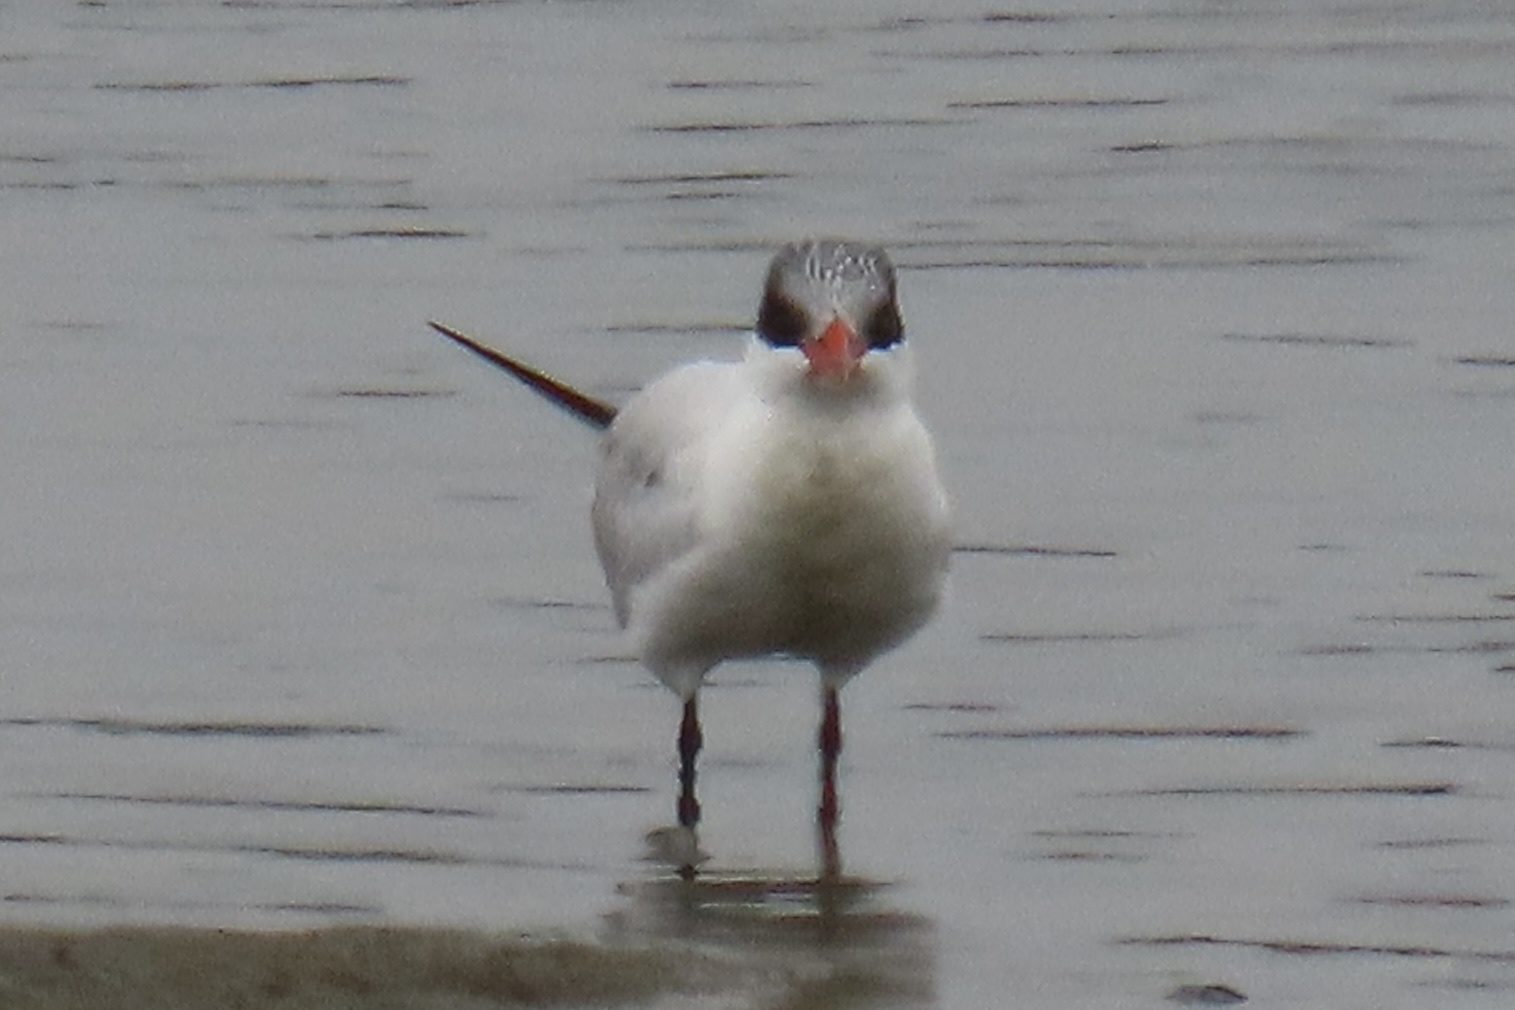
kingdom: Animalia
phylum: Chordata
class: Aves
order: Charadriiformes
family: Laridae
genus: Hydroprogne
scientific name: Hydroprogne caspia
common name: Caspian tern
